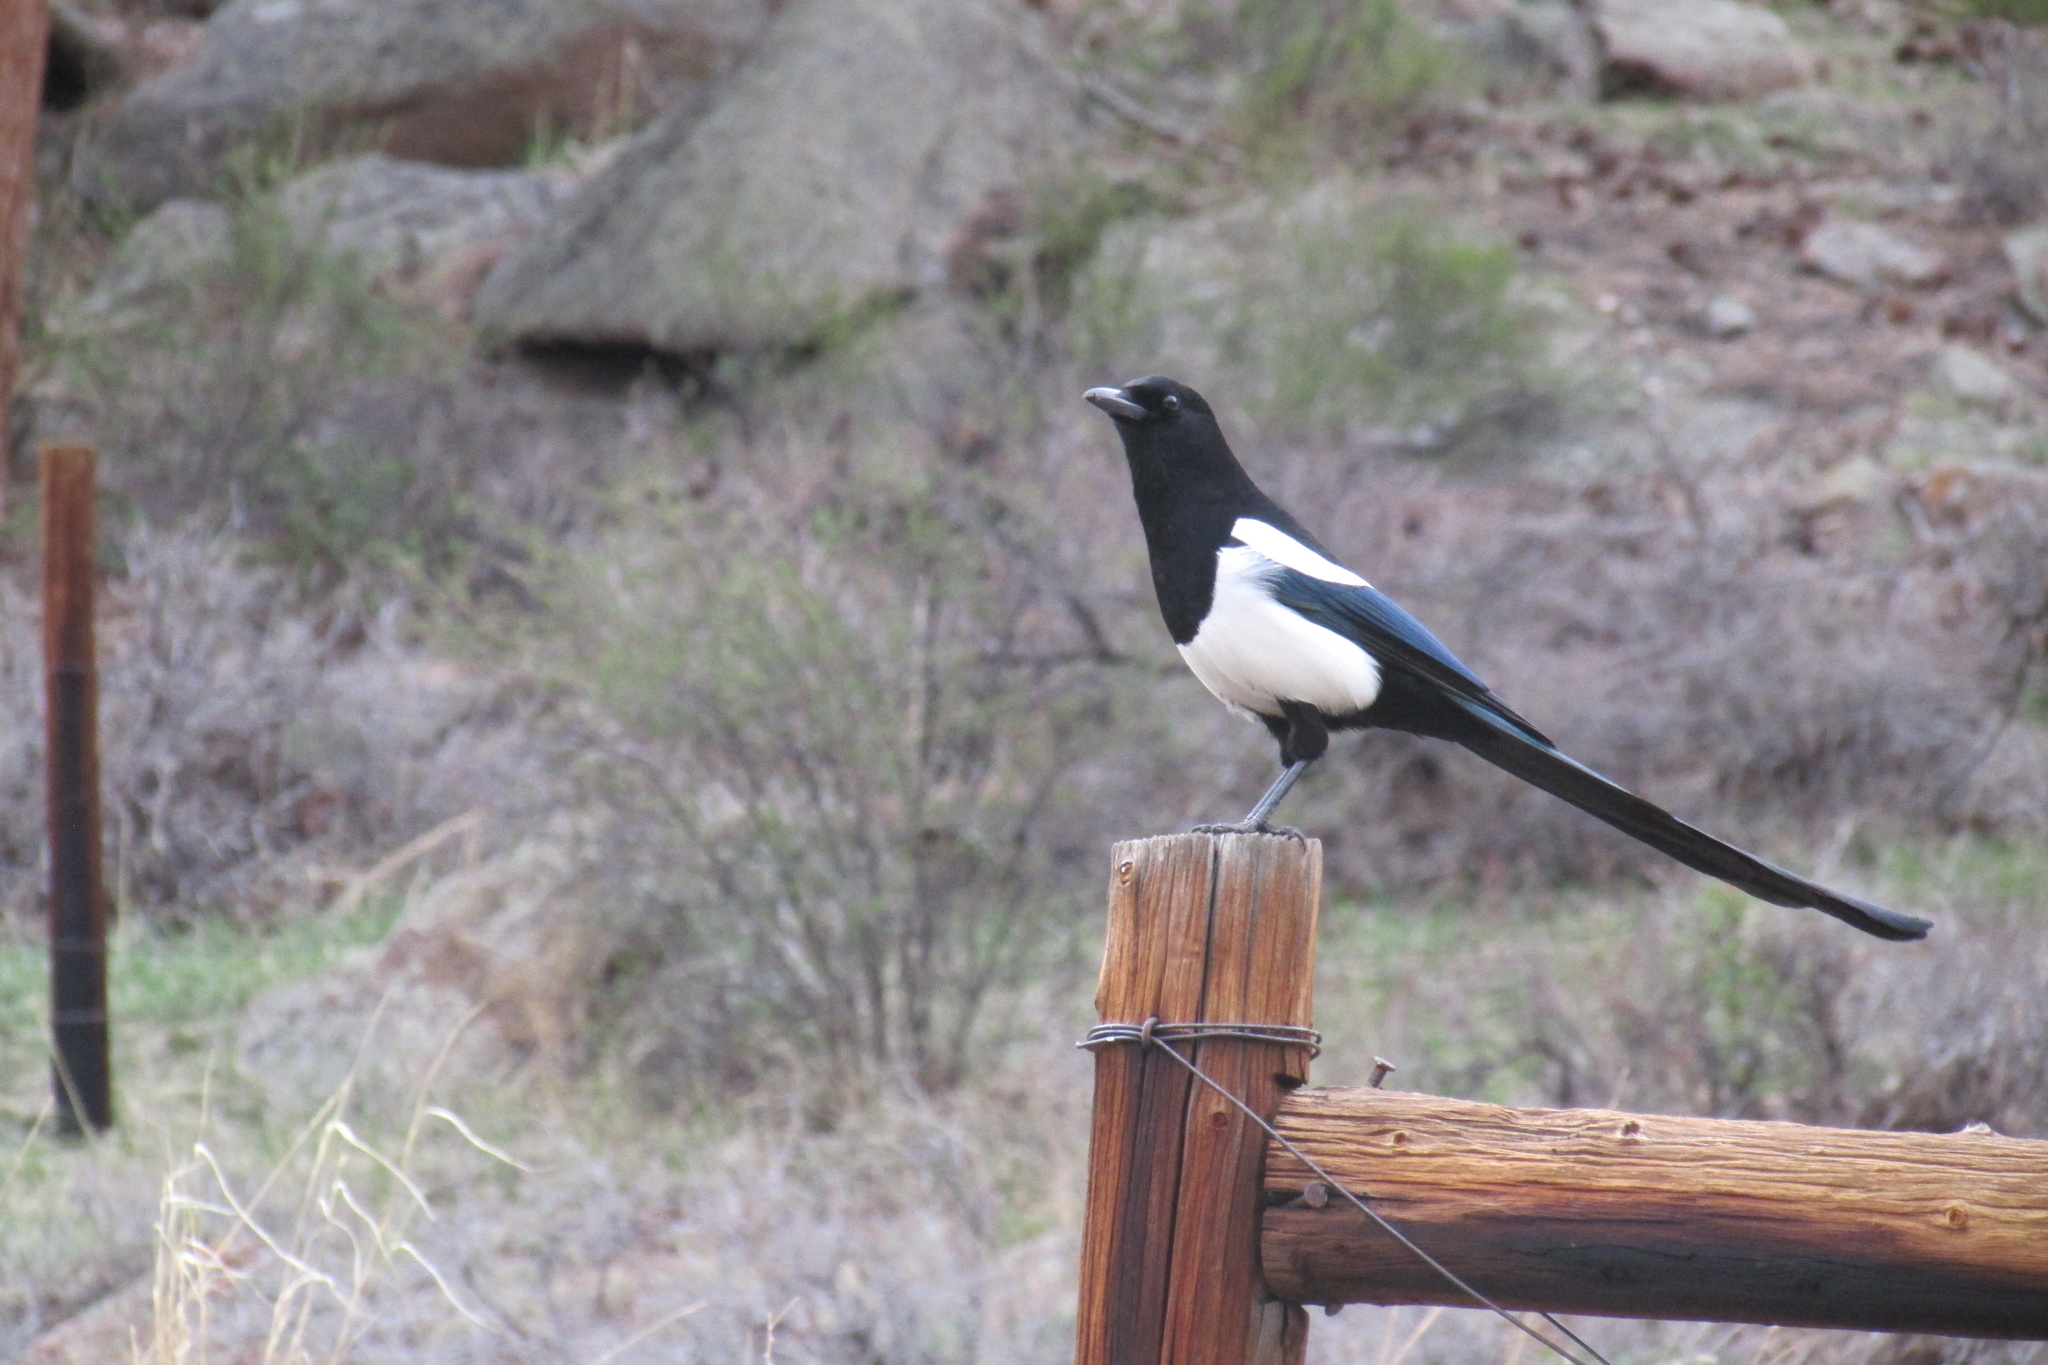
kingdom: Animalia
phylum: Chordata
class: Aves
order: Passeriformes
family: Corvidae
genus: Pica
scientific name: Pica hudsonia
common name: Black-billed magpie
